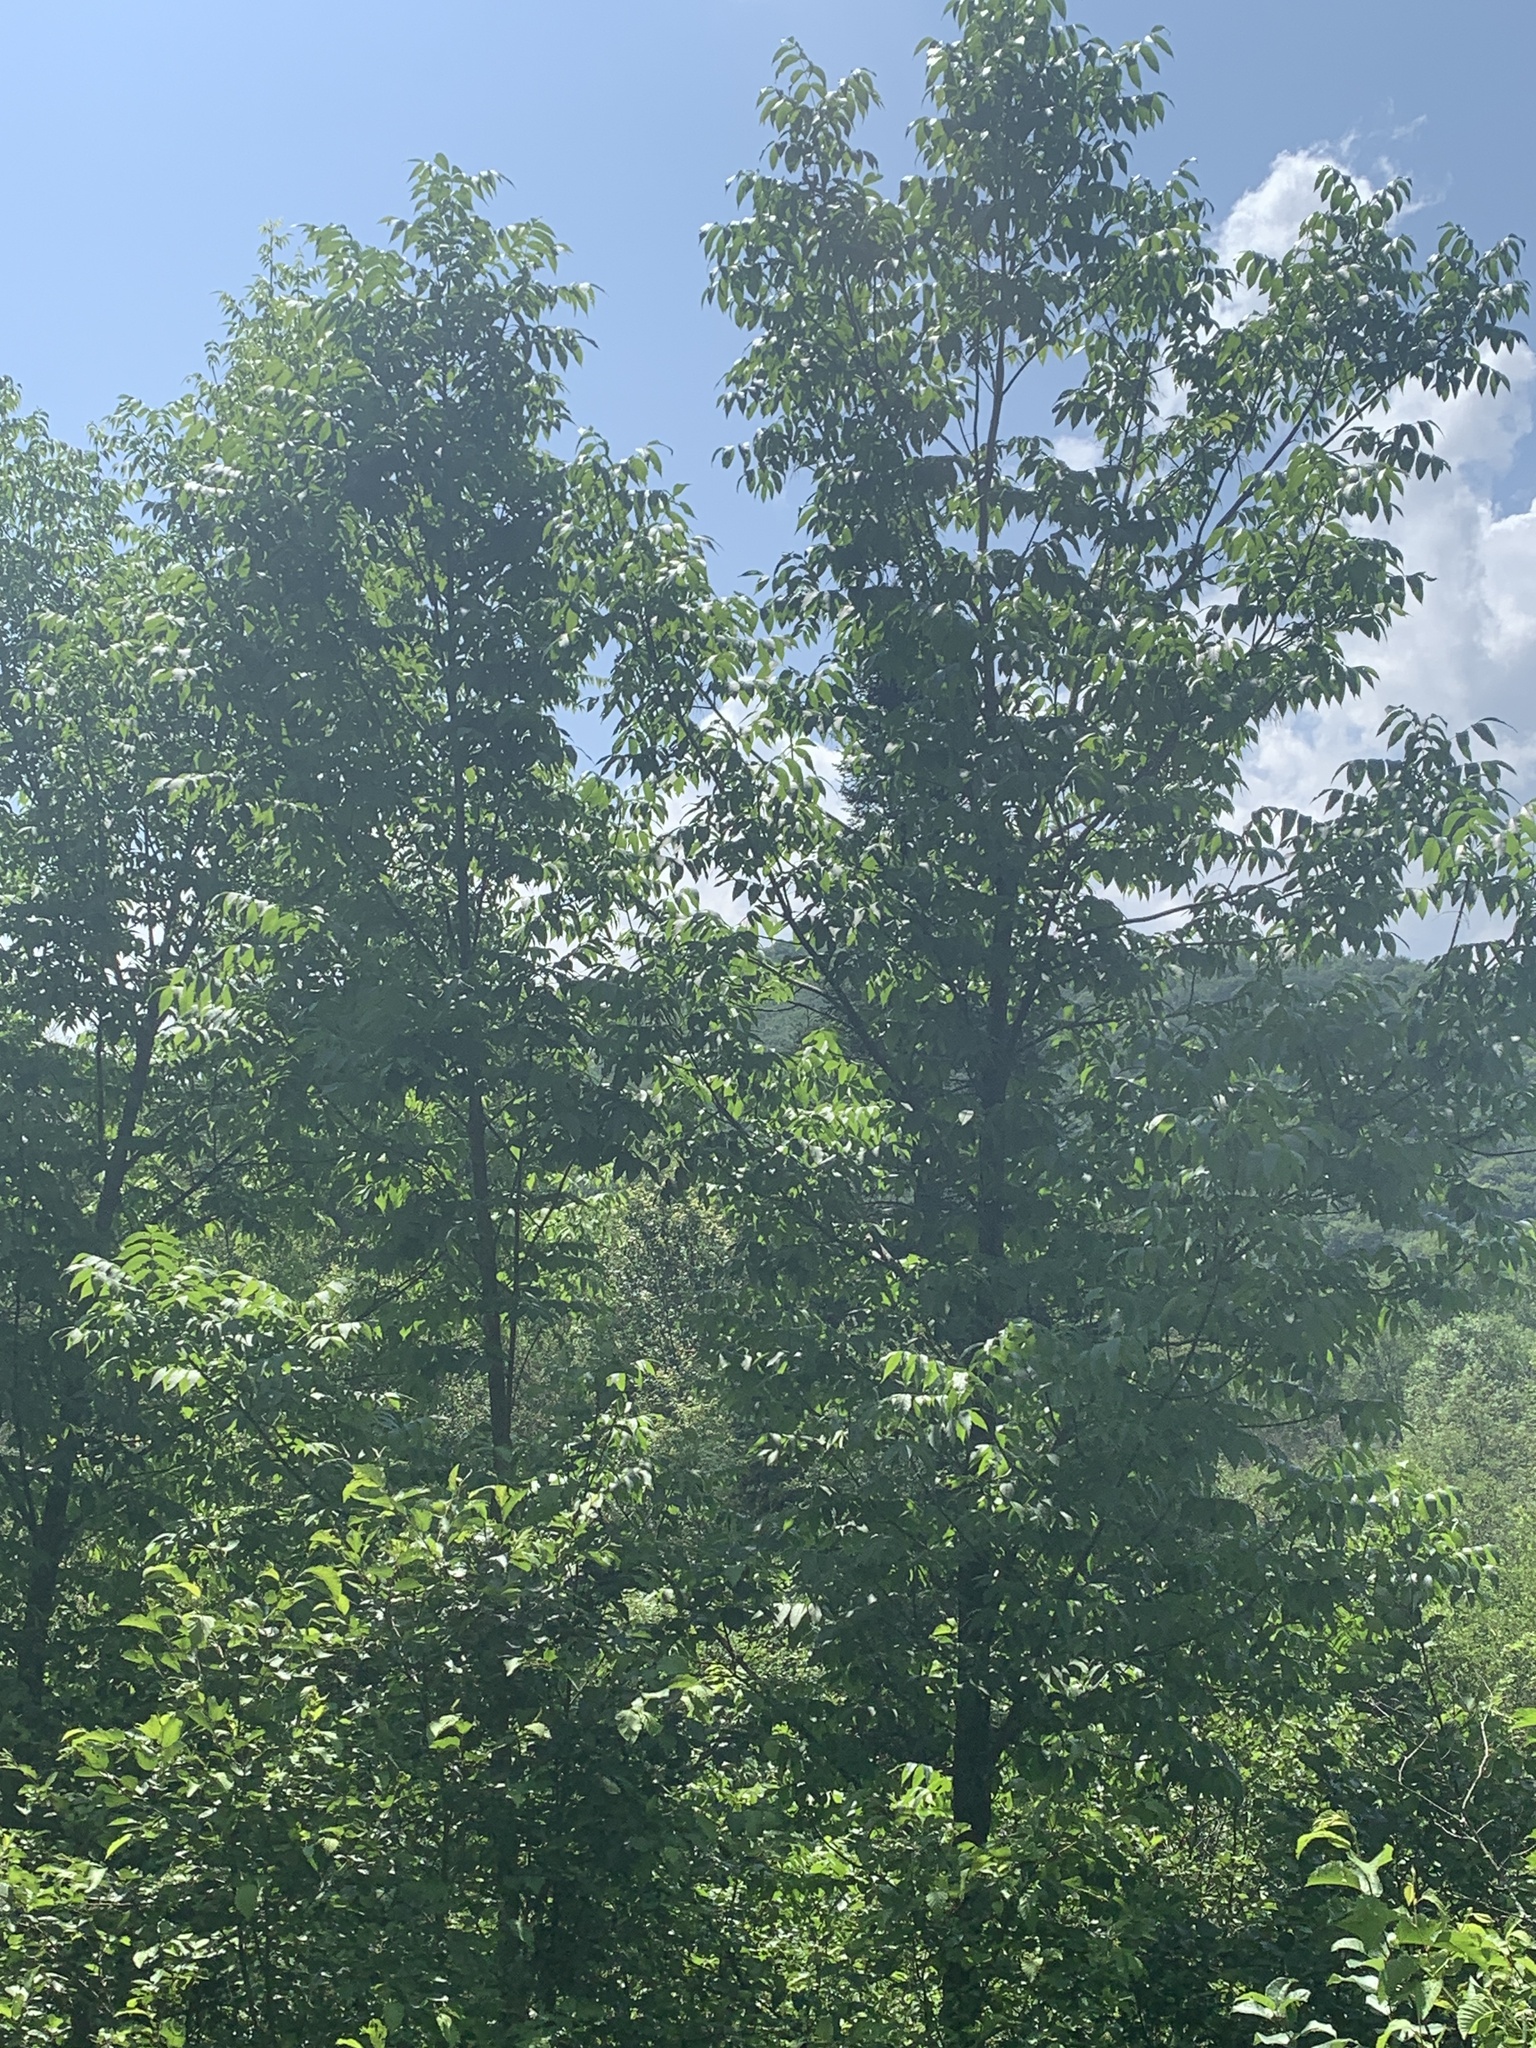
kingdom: Plantae
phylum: Tracheophyta
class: Magnoliopsida
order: Lamiales
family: Oleaceae
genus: Fraxinus
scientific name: Fraxinus nigra
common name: Black ash
